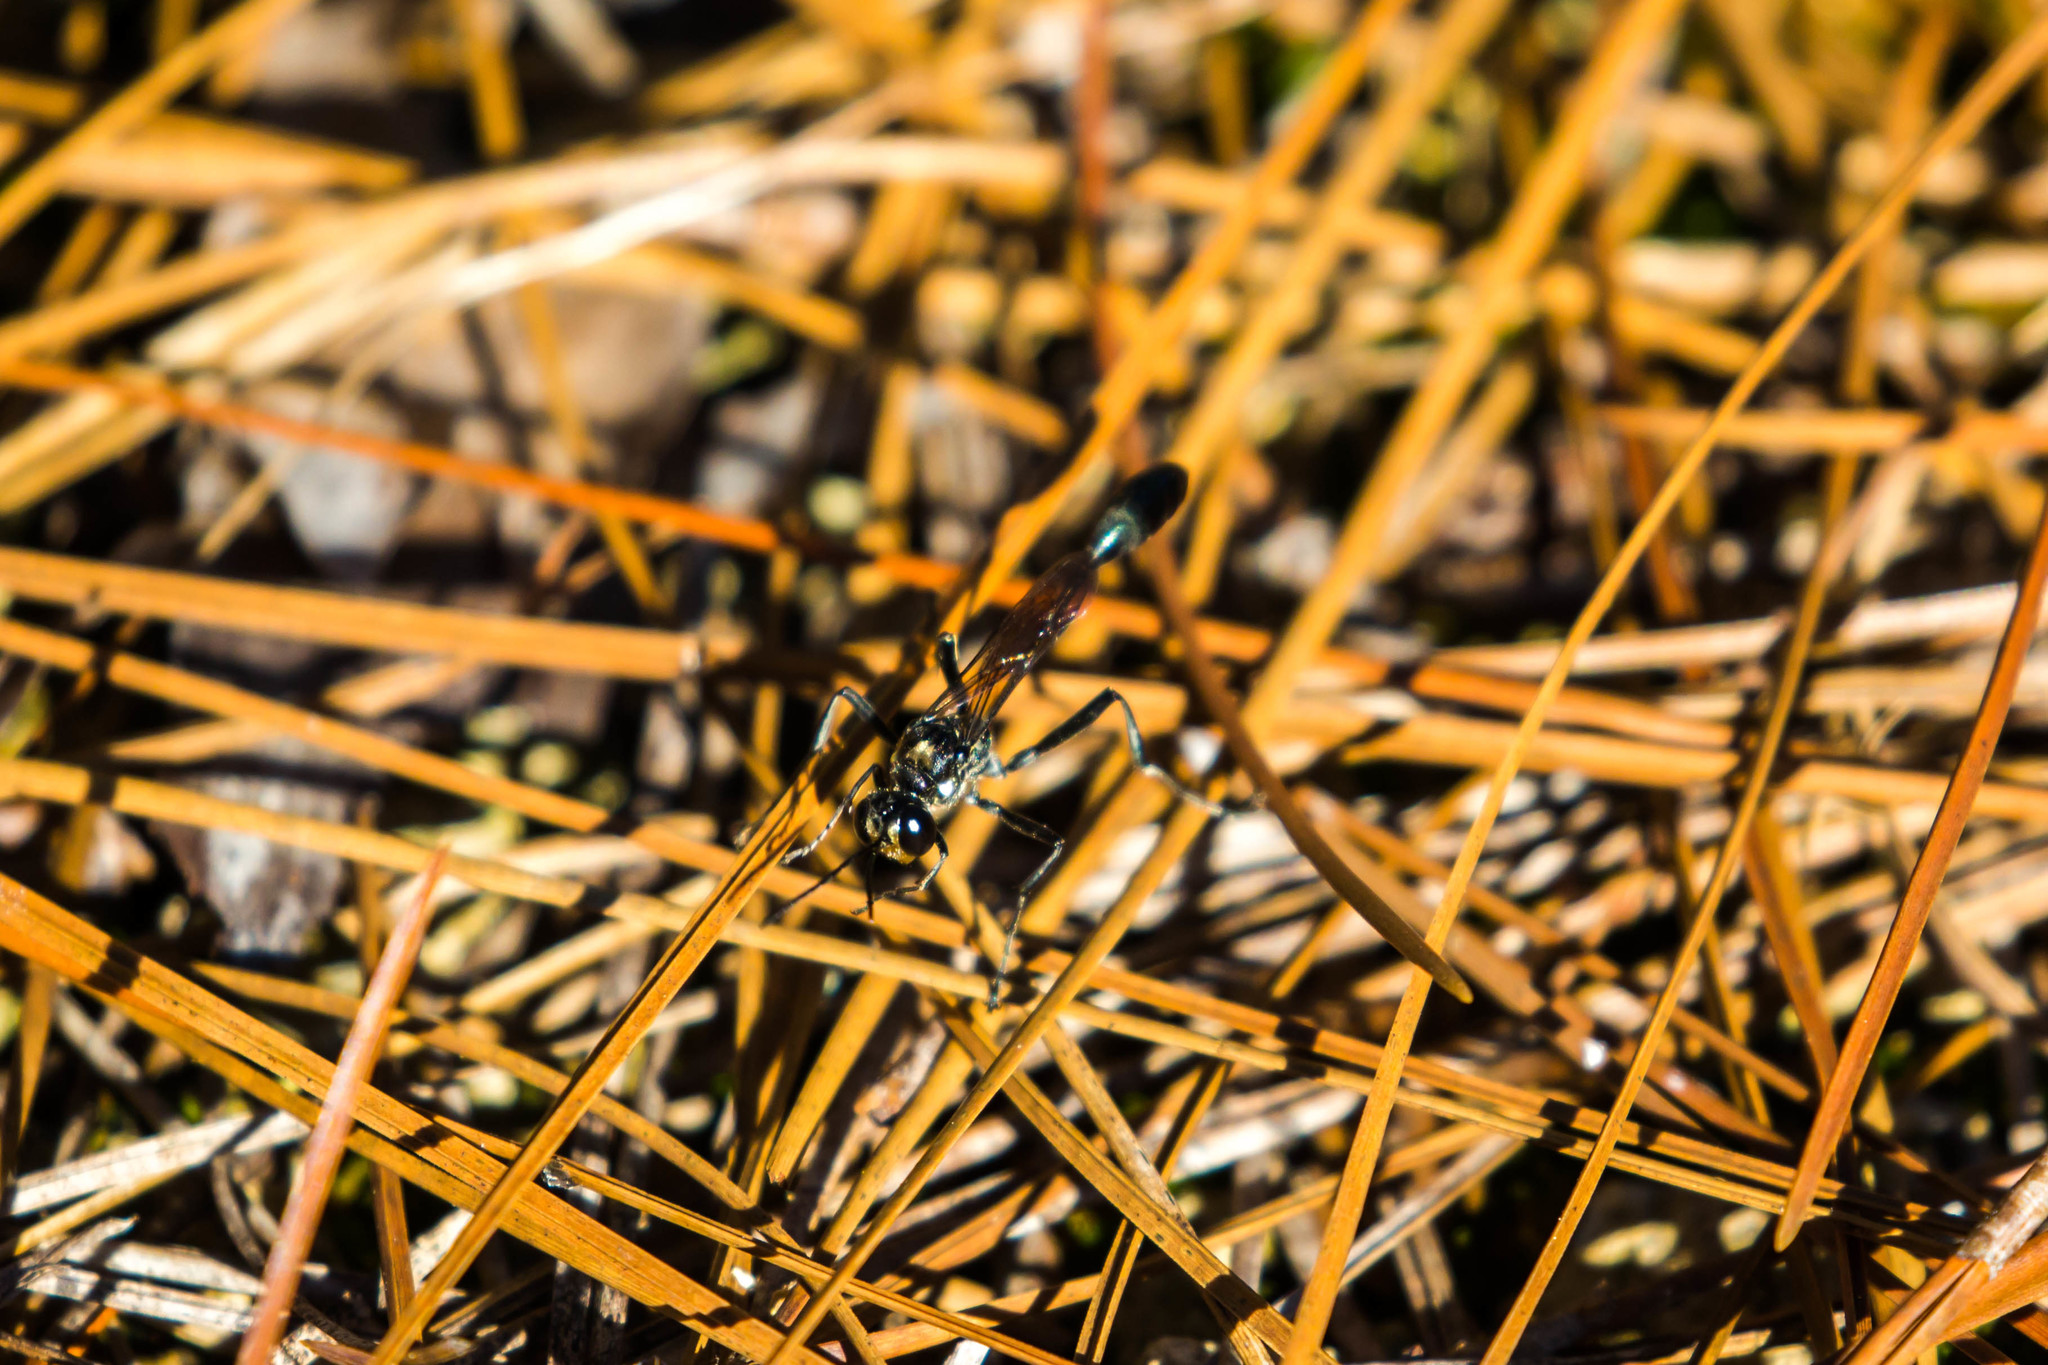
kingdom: Animalia
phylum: Arthropoda
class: Insecta
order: Hymenoptera
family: Sphecidae
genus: Eremnophila
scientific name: Eremnophila aureonotata
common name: Gold-marked thread-waisted wasp
